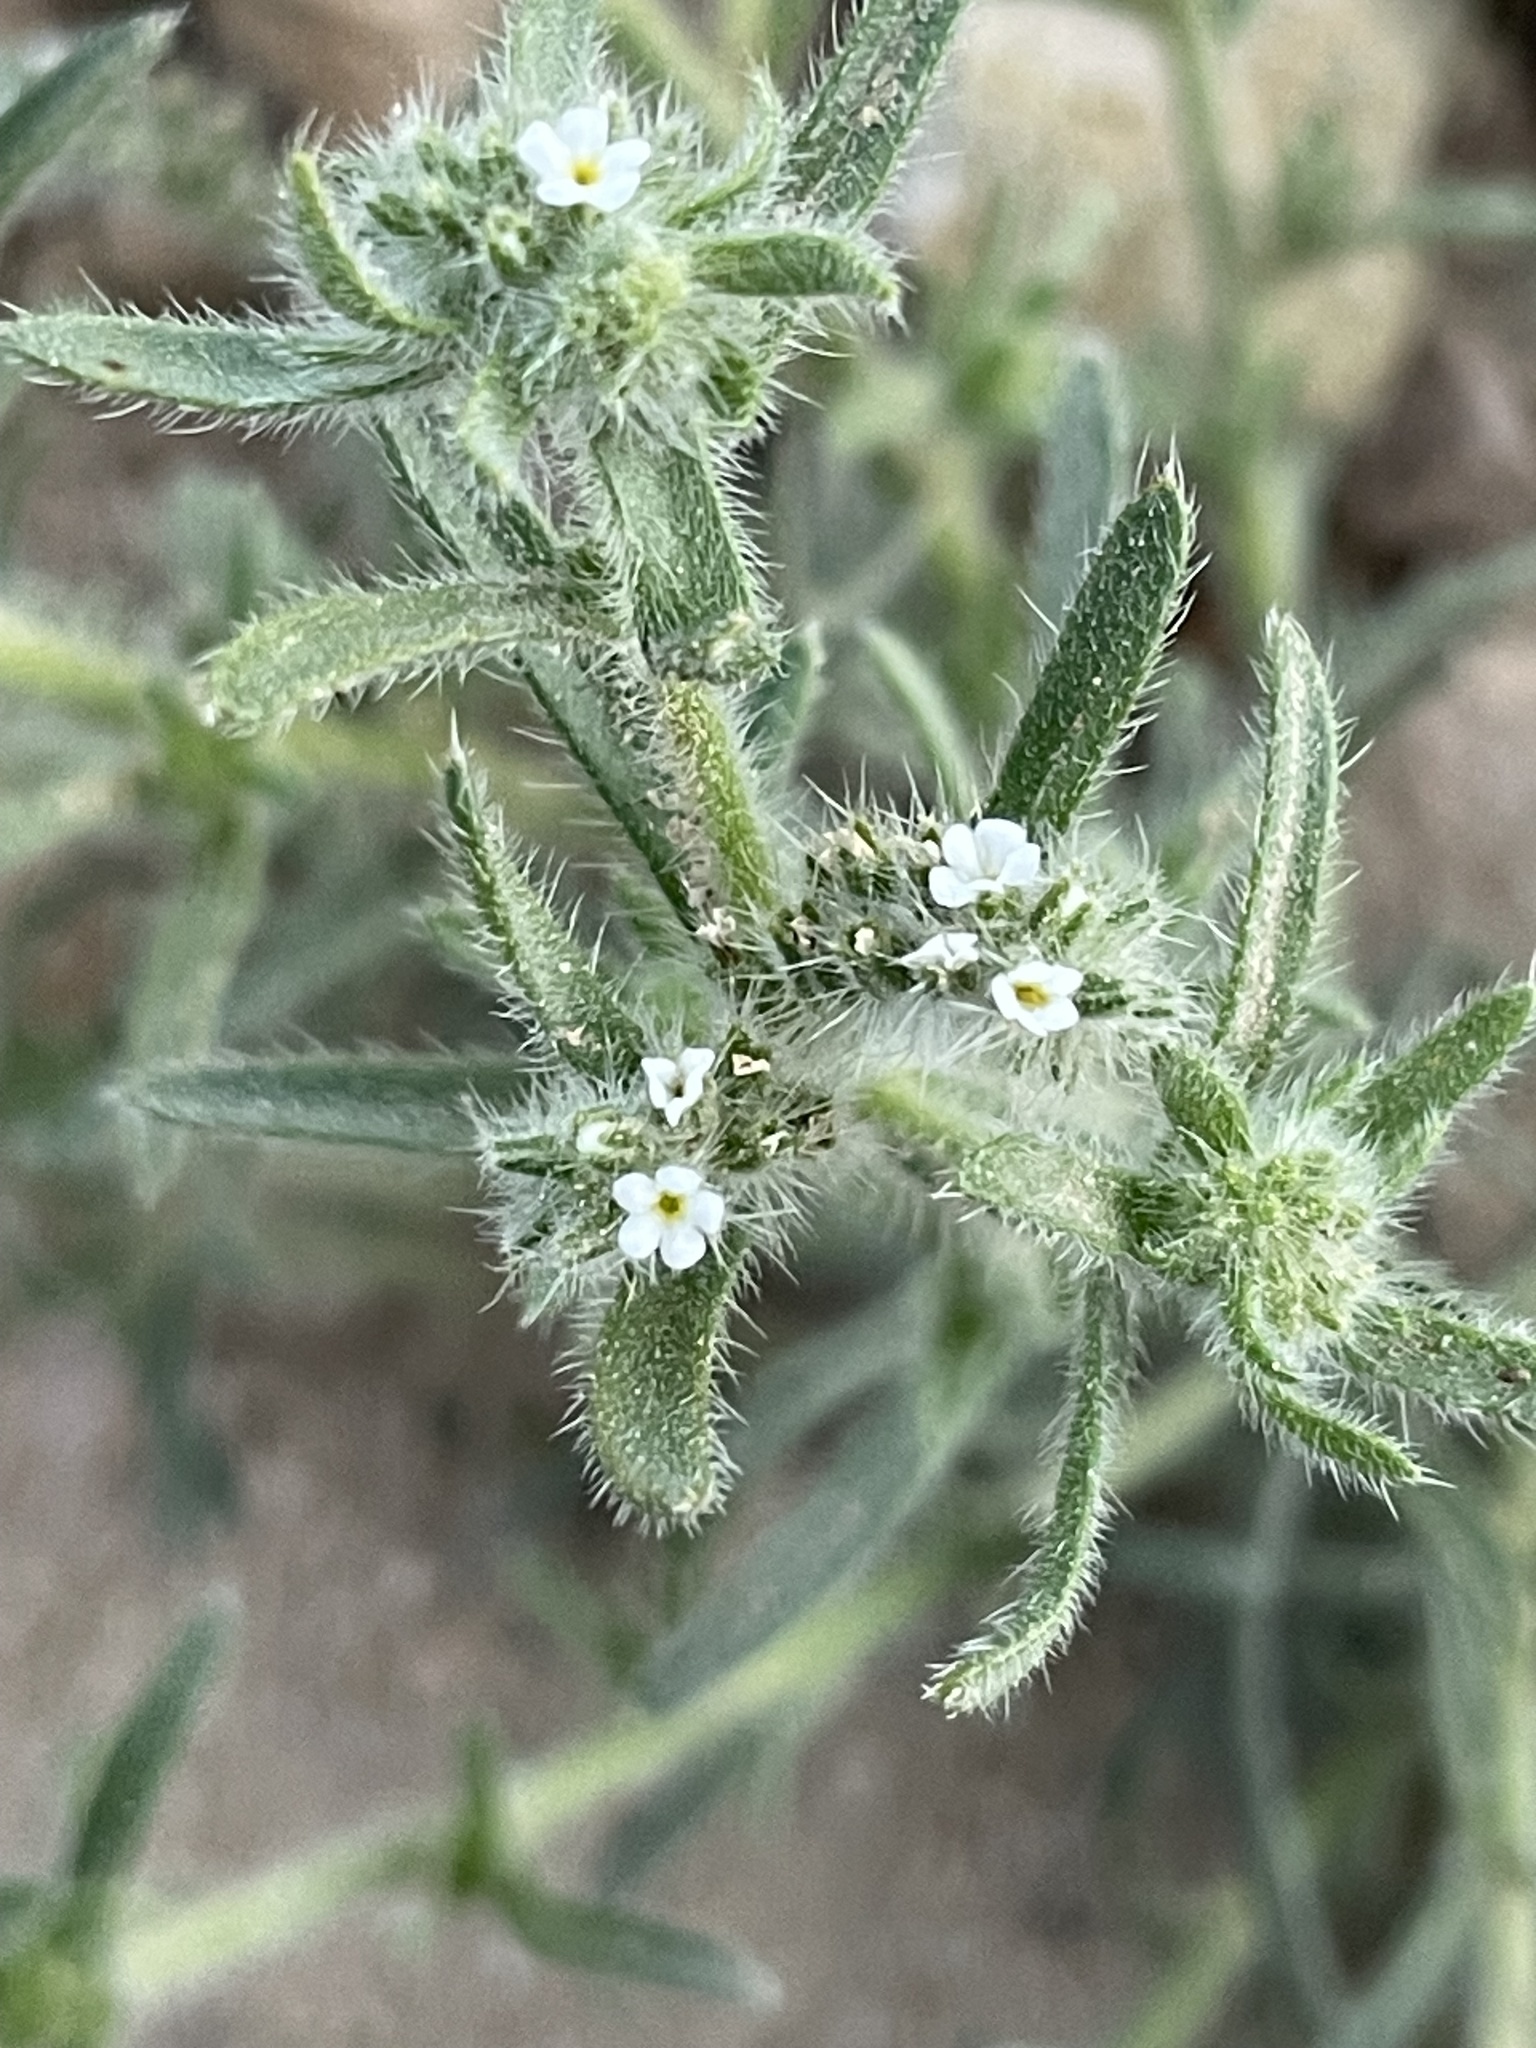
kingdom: Plantae
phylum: Tracheophyta
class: Magnoliopsida
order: Boraginales
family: Boraginaceae
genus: Johnstonella
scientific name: Johnstonella angustifolia
